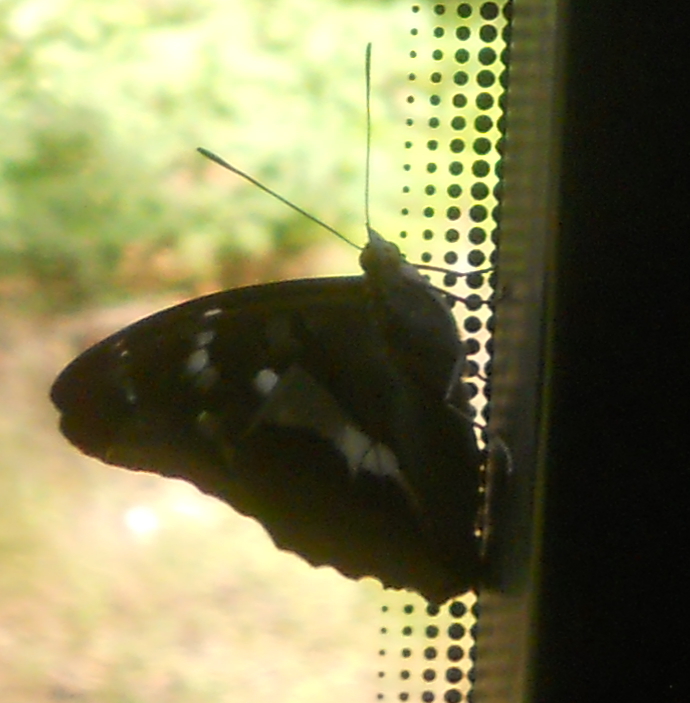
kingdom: Animalia
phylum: Arthropoda
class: Insecta
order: Lepidoptera
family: Nymphalidae
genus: Apatura
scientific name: Apatura iris
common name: Purple emperor
